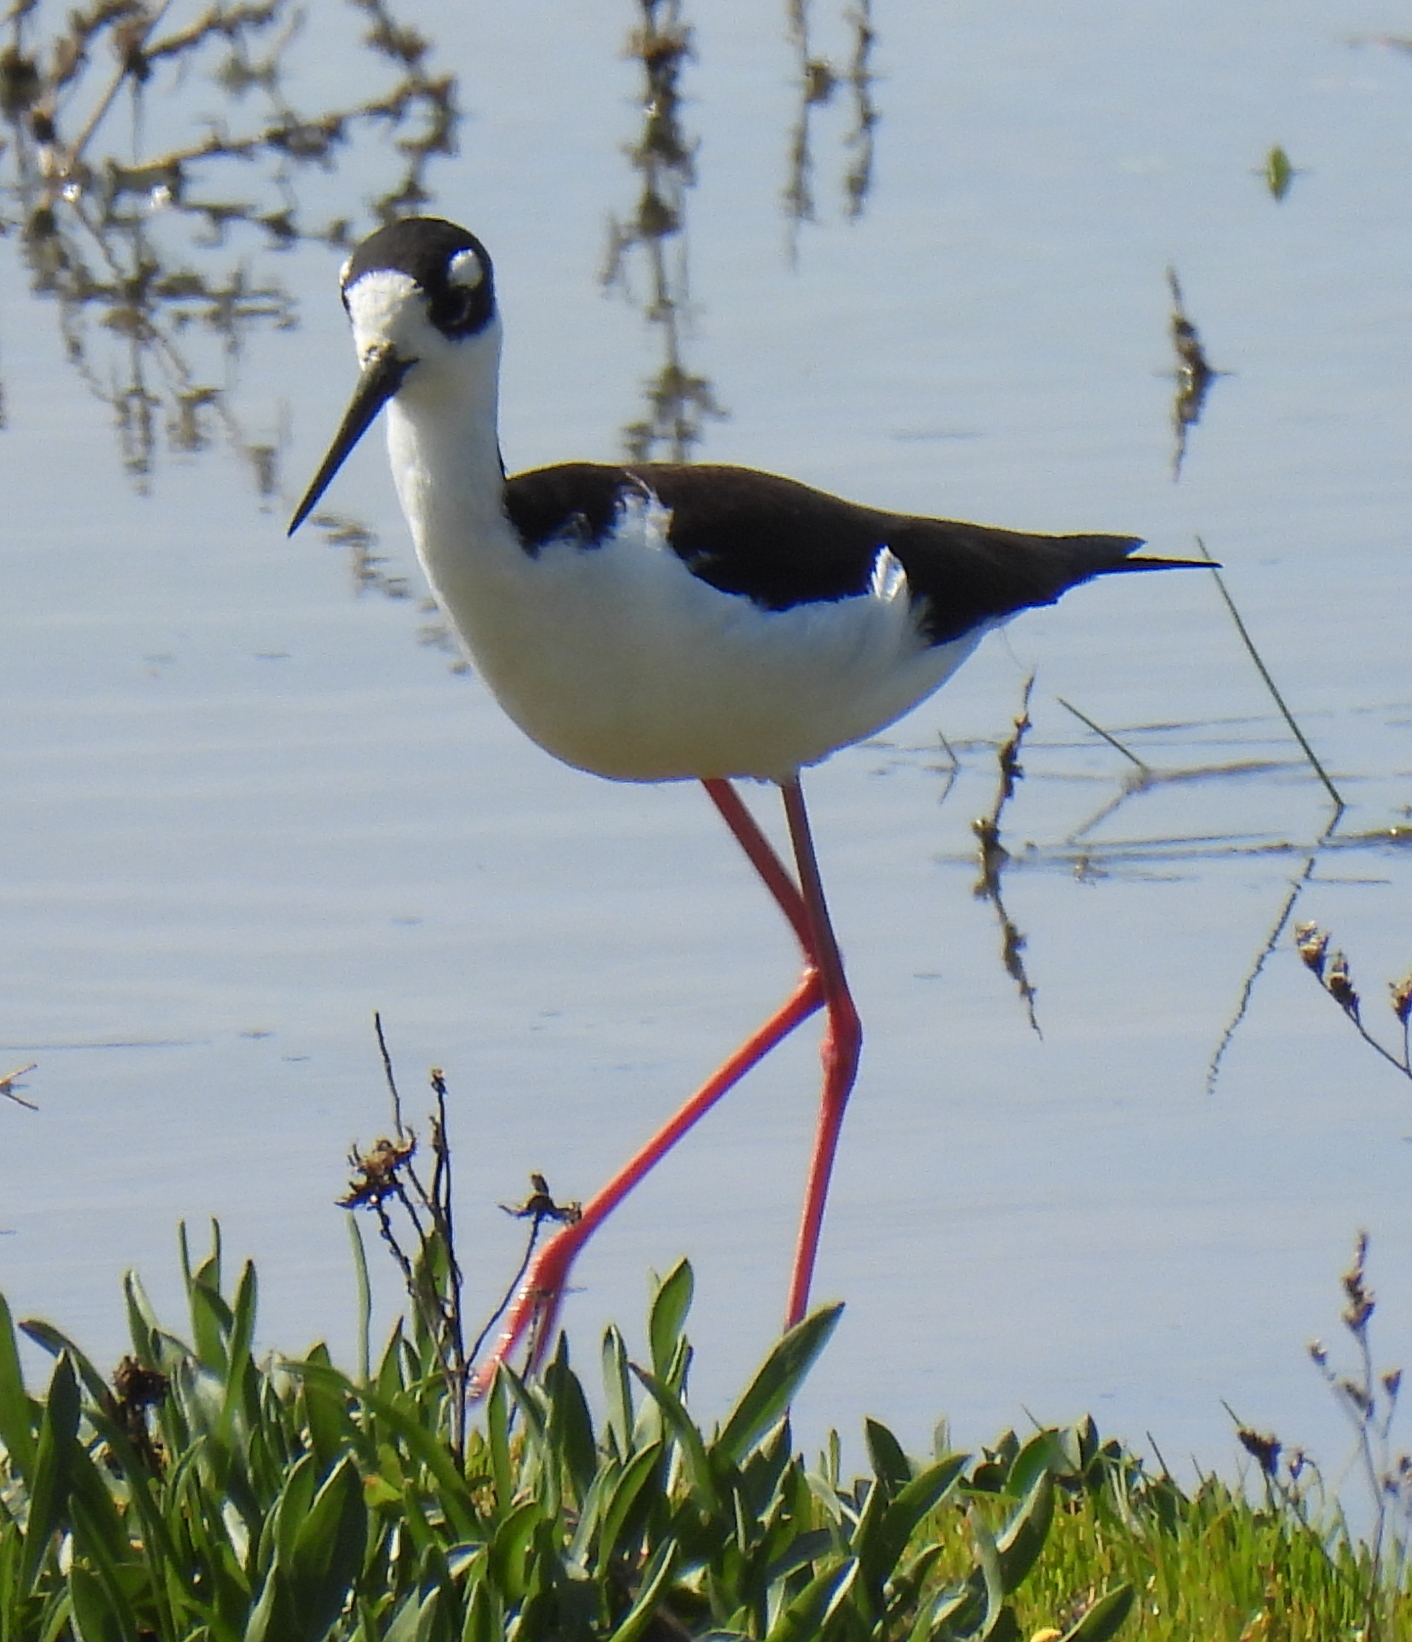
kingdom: Animalia
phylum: Chordata
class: Aves
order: Charadriiformes
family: Recurvirostridae
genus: Himantopus
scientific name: Himantopus mexicanus
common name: Black-necked stilt
